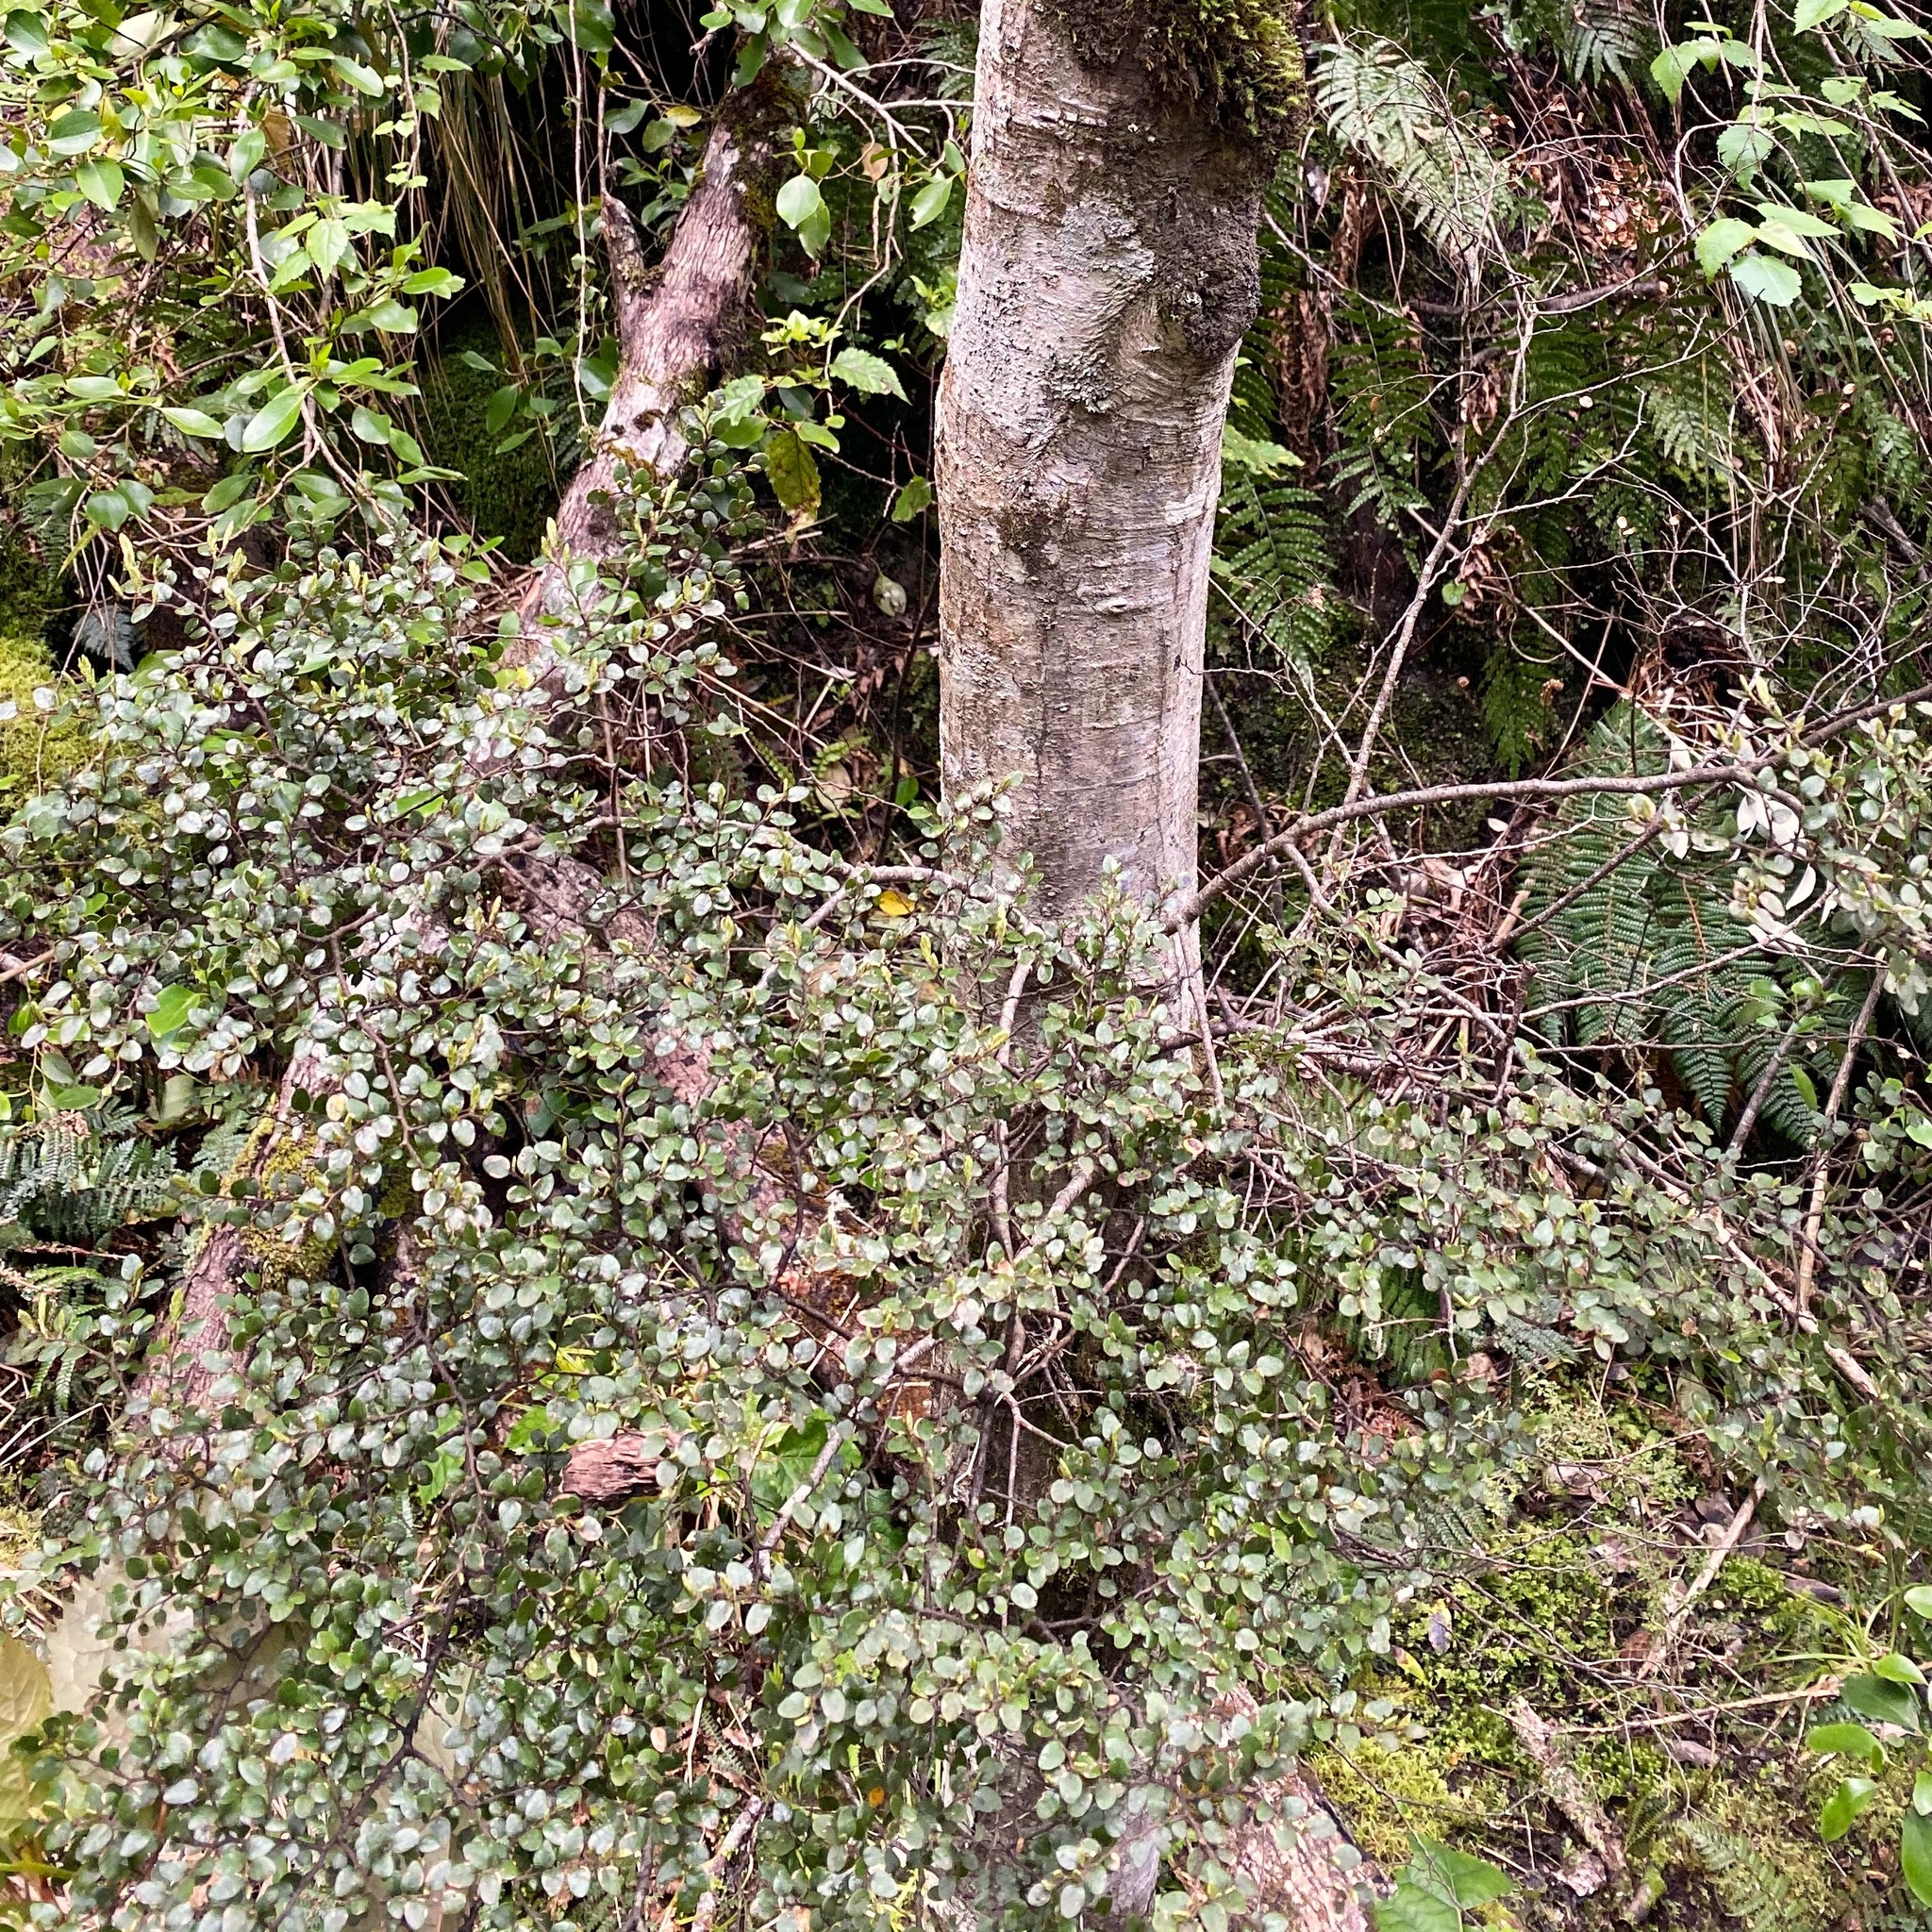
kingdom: Plantae
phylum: Tracheophyta
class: Magnoliopsida
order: Fagales
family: Nothofagaceae
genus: Nothofagus
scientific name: Nothofagus cliffortioides
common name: Mountain beech
